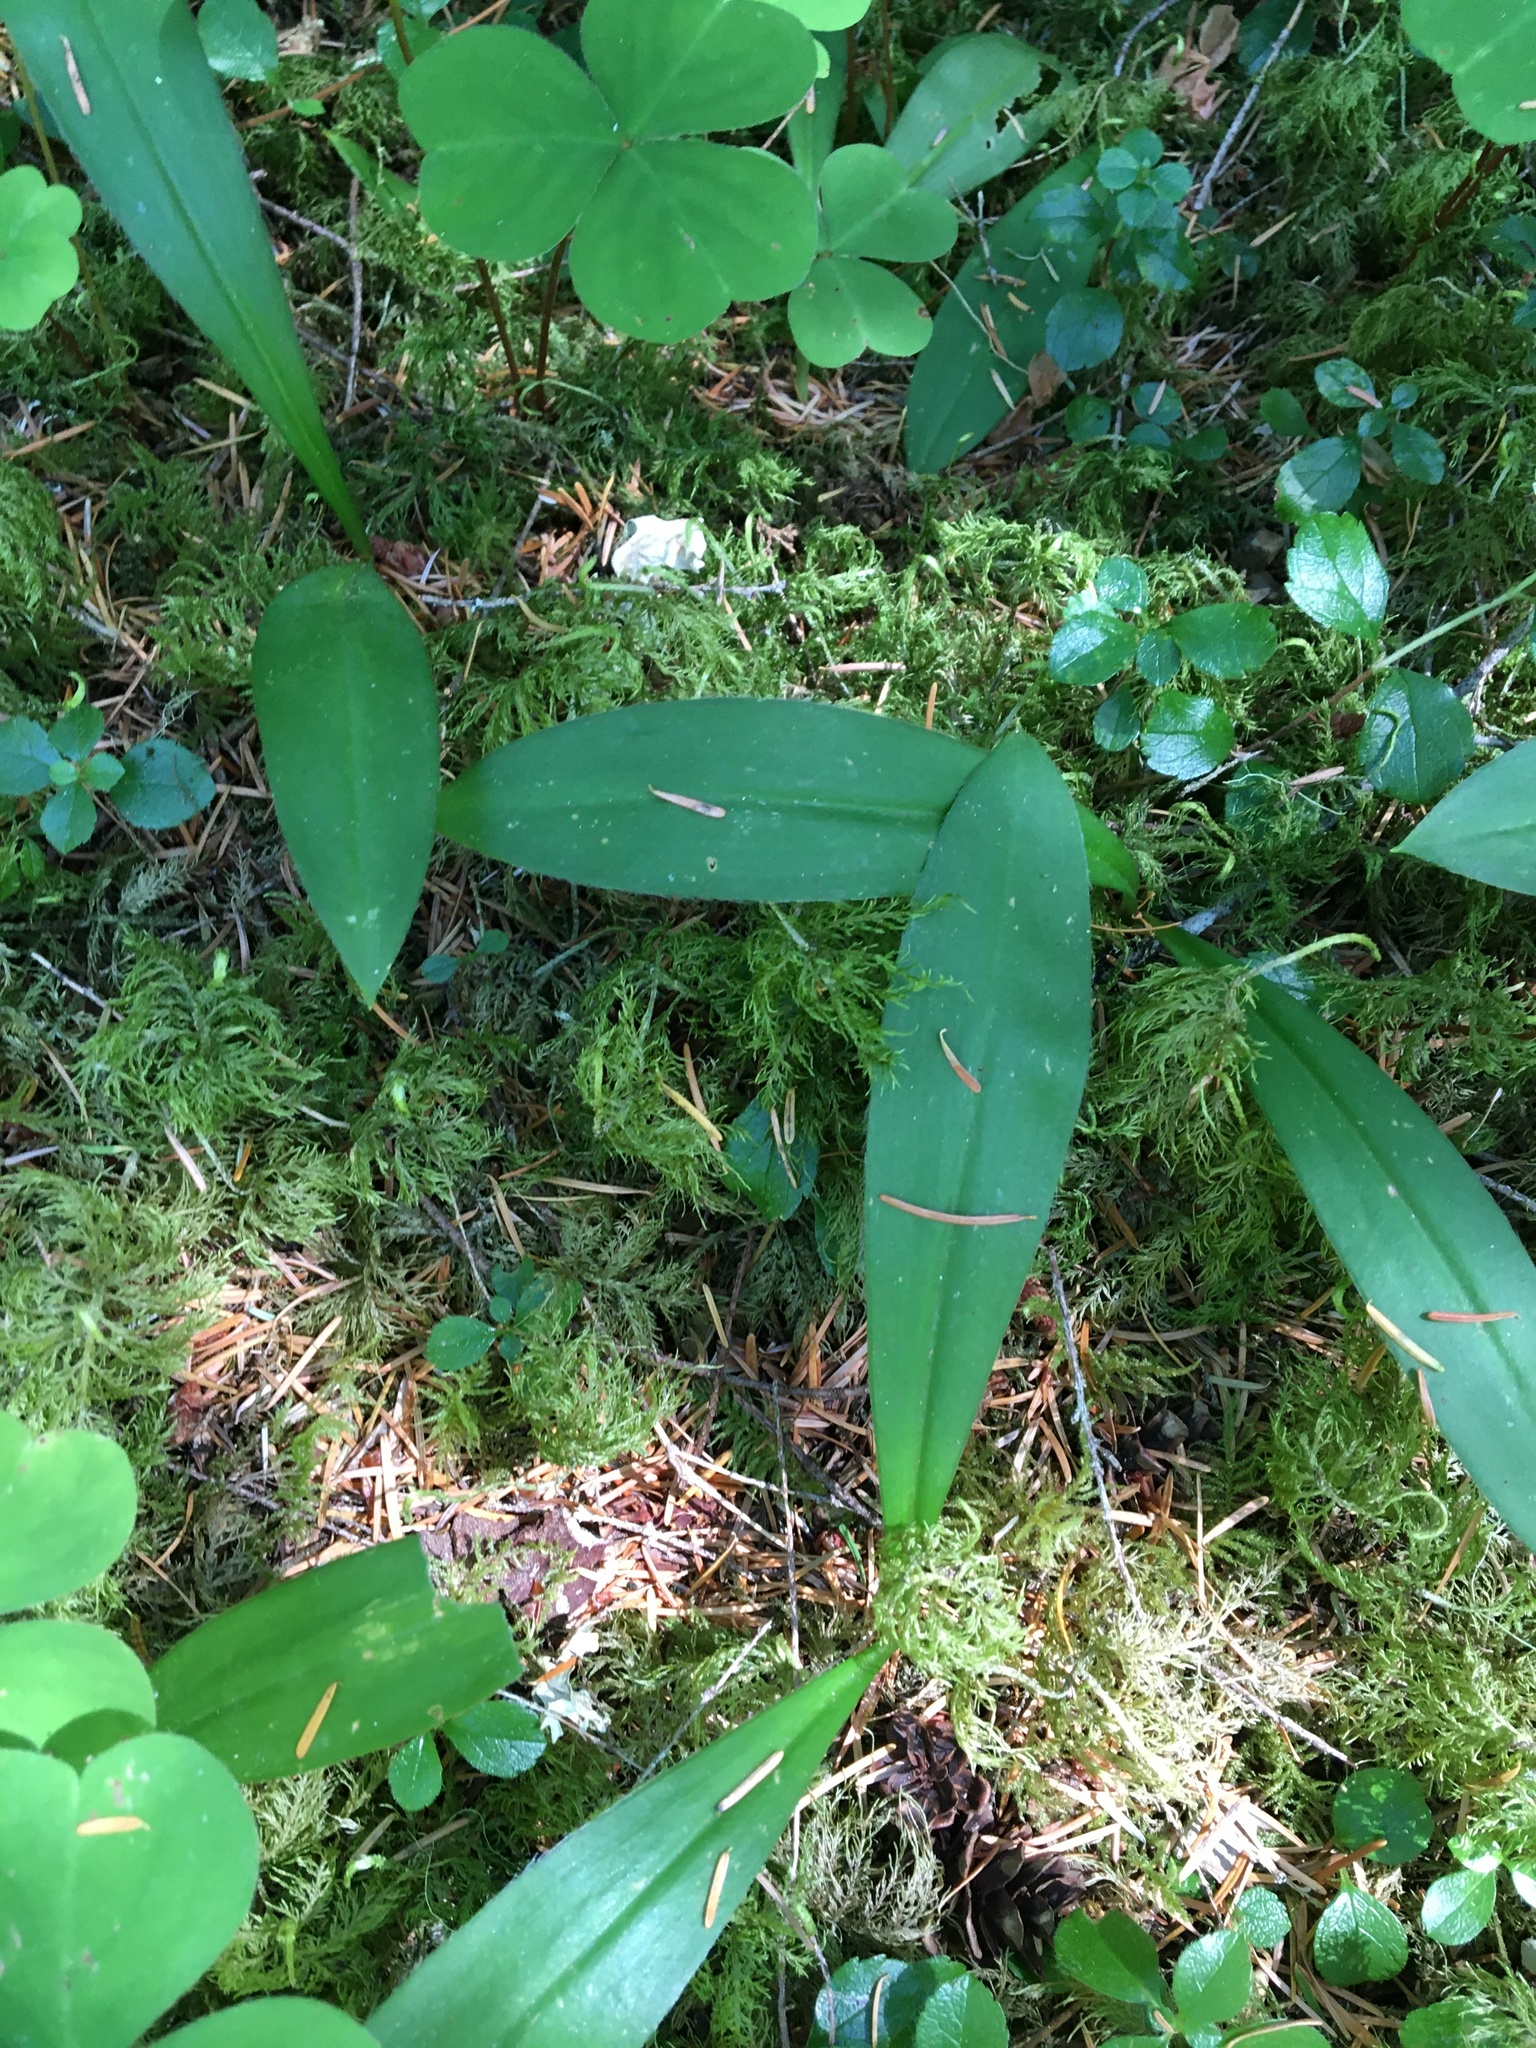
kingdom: Plantae
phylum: Tracheophyta
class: Liliopsida
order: Liliales
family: Liliaceae
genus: Clintonia
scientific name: Clintonia uniflora
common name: Queen's cup
